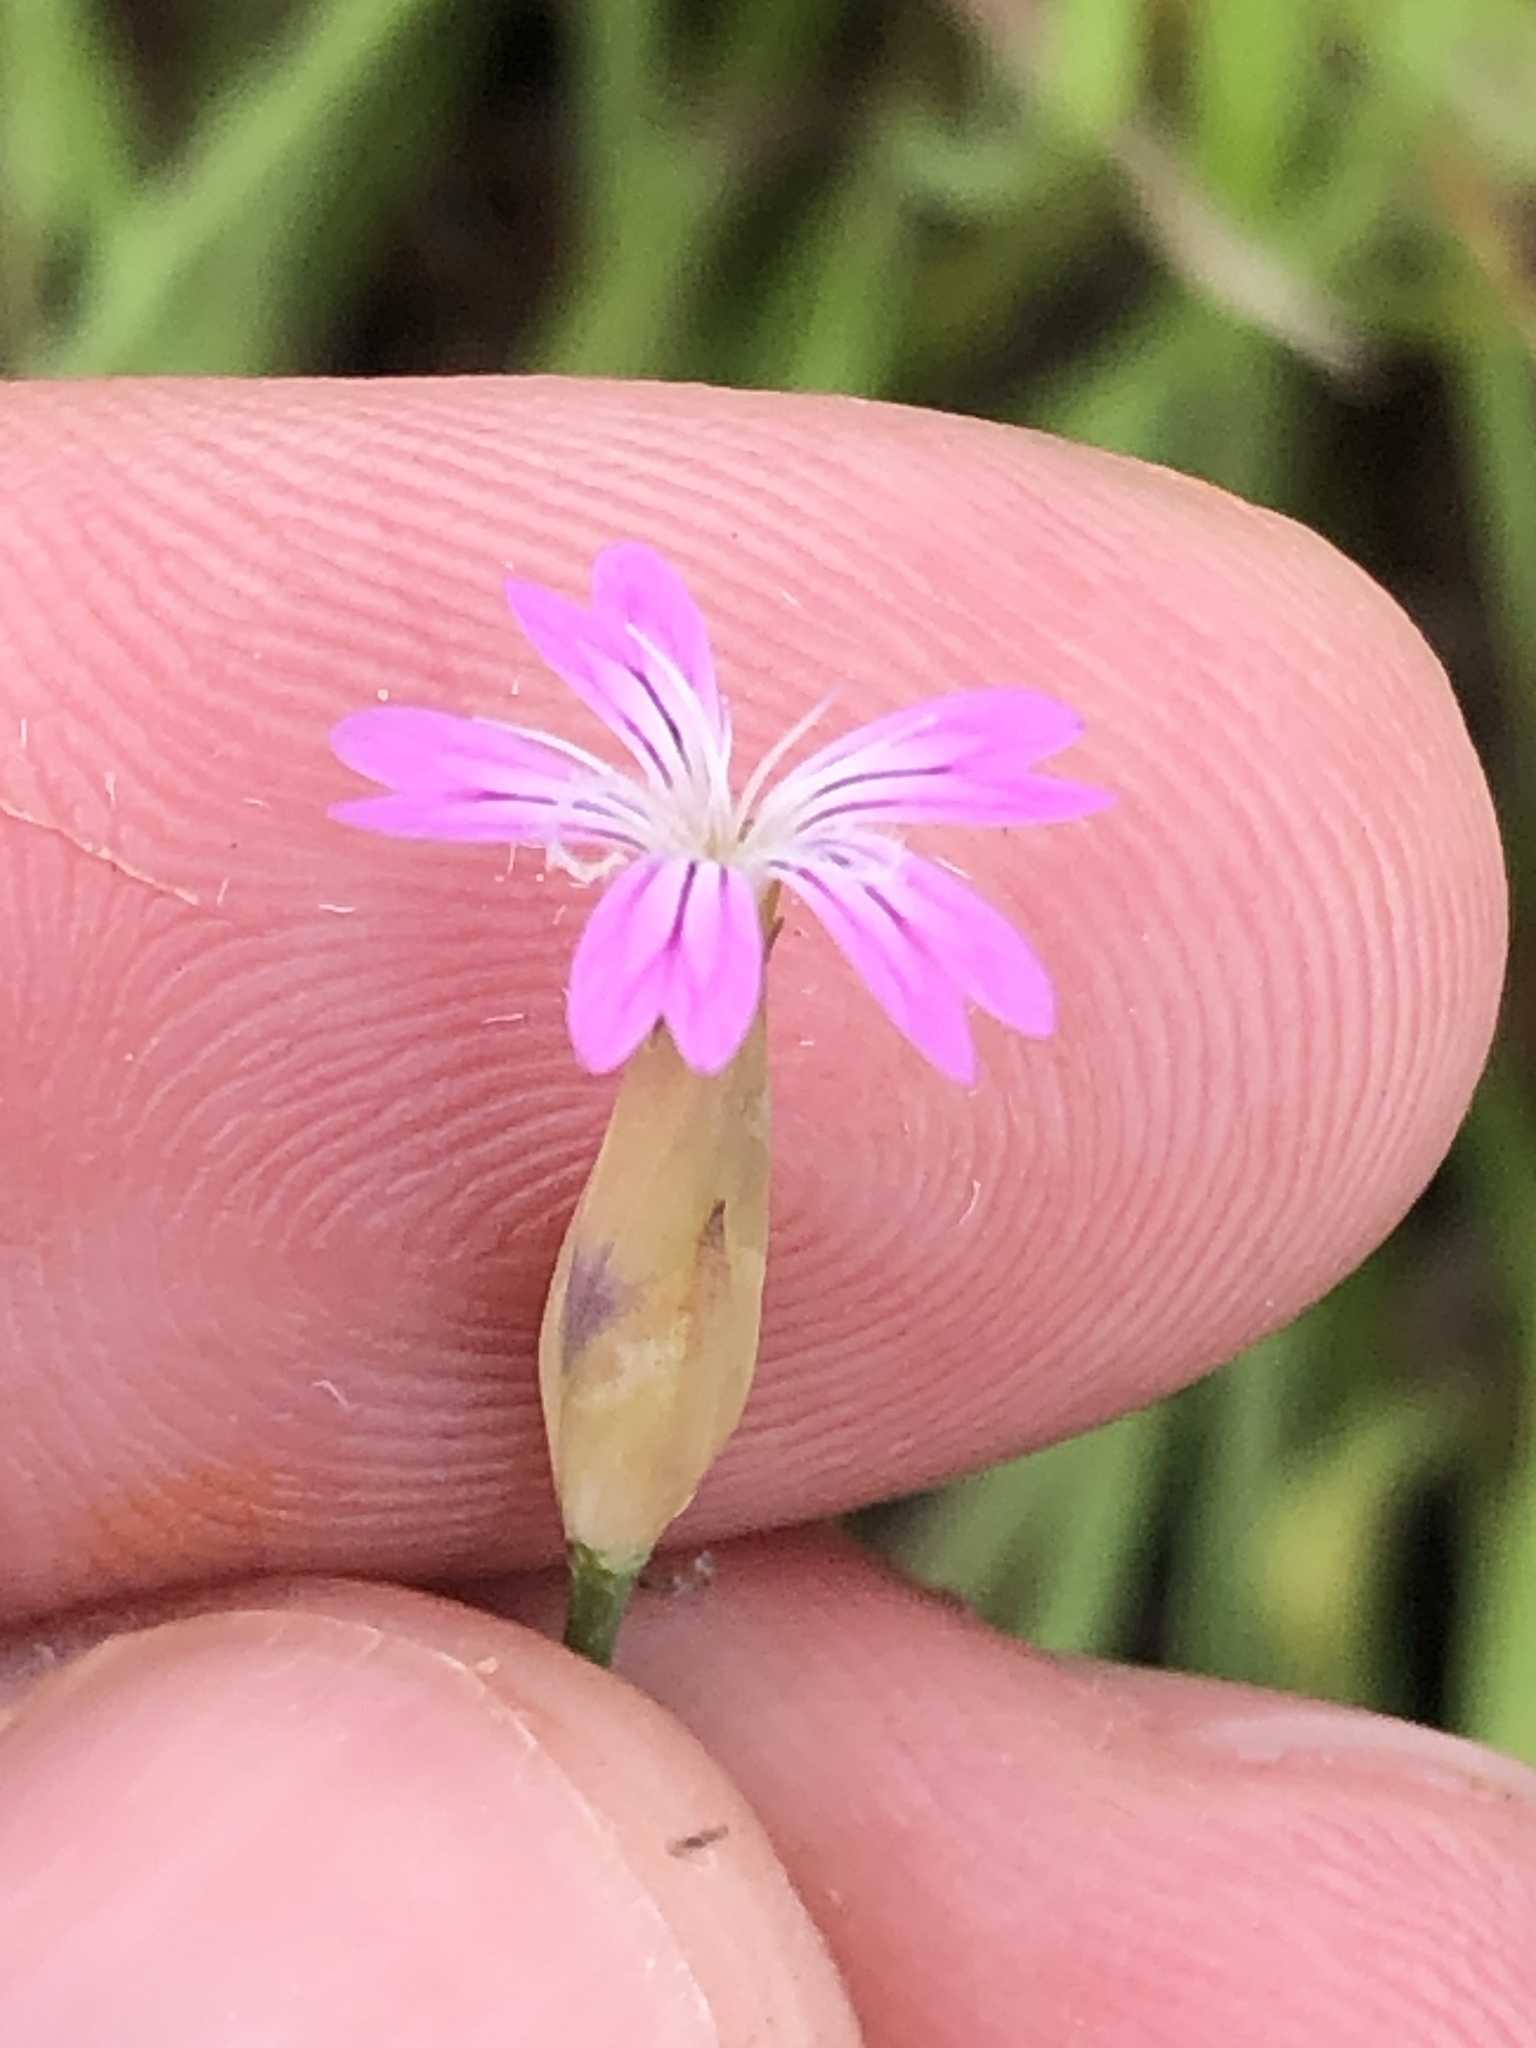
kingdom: Plantae
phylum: Tracheophyta
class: Magnoliopsida
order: Caryophyllales
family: Caryophyllaceae
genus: Petrorhagia
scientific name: Petrorhagia dubia
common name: Hairypink
